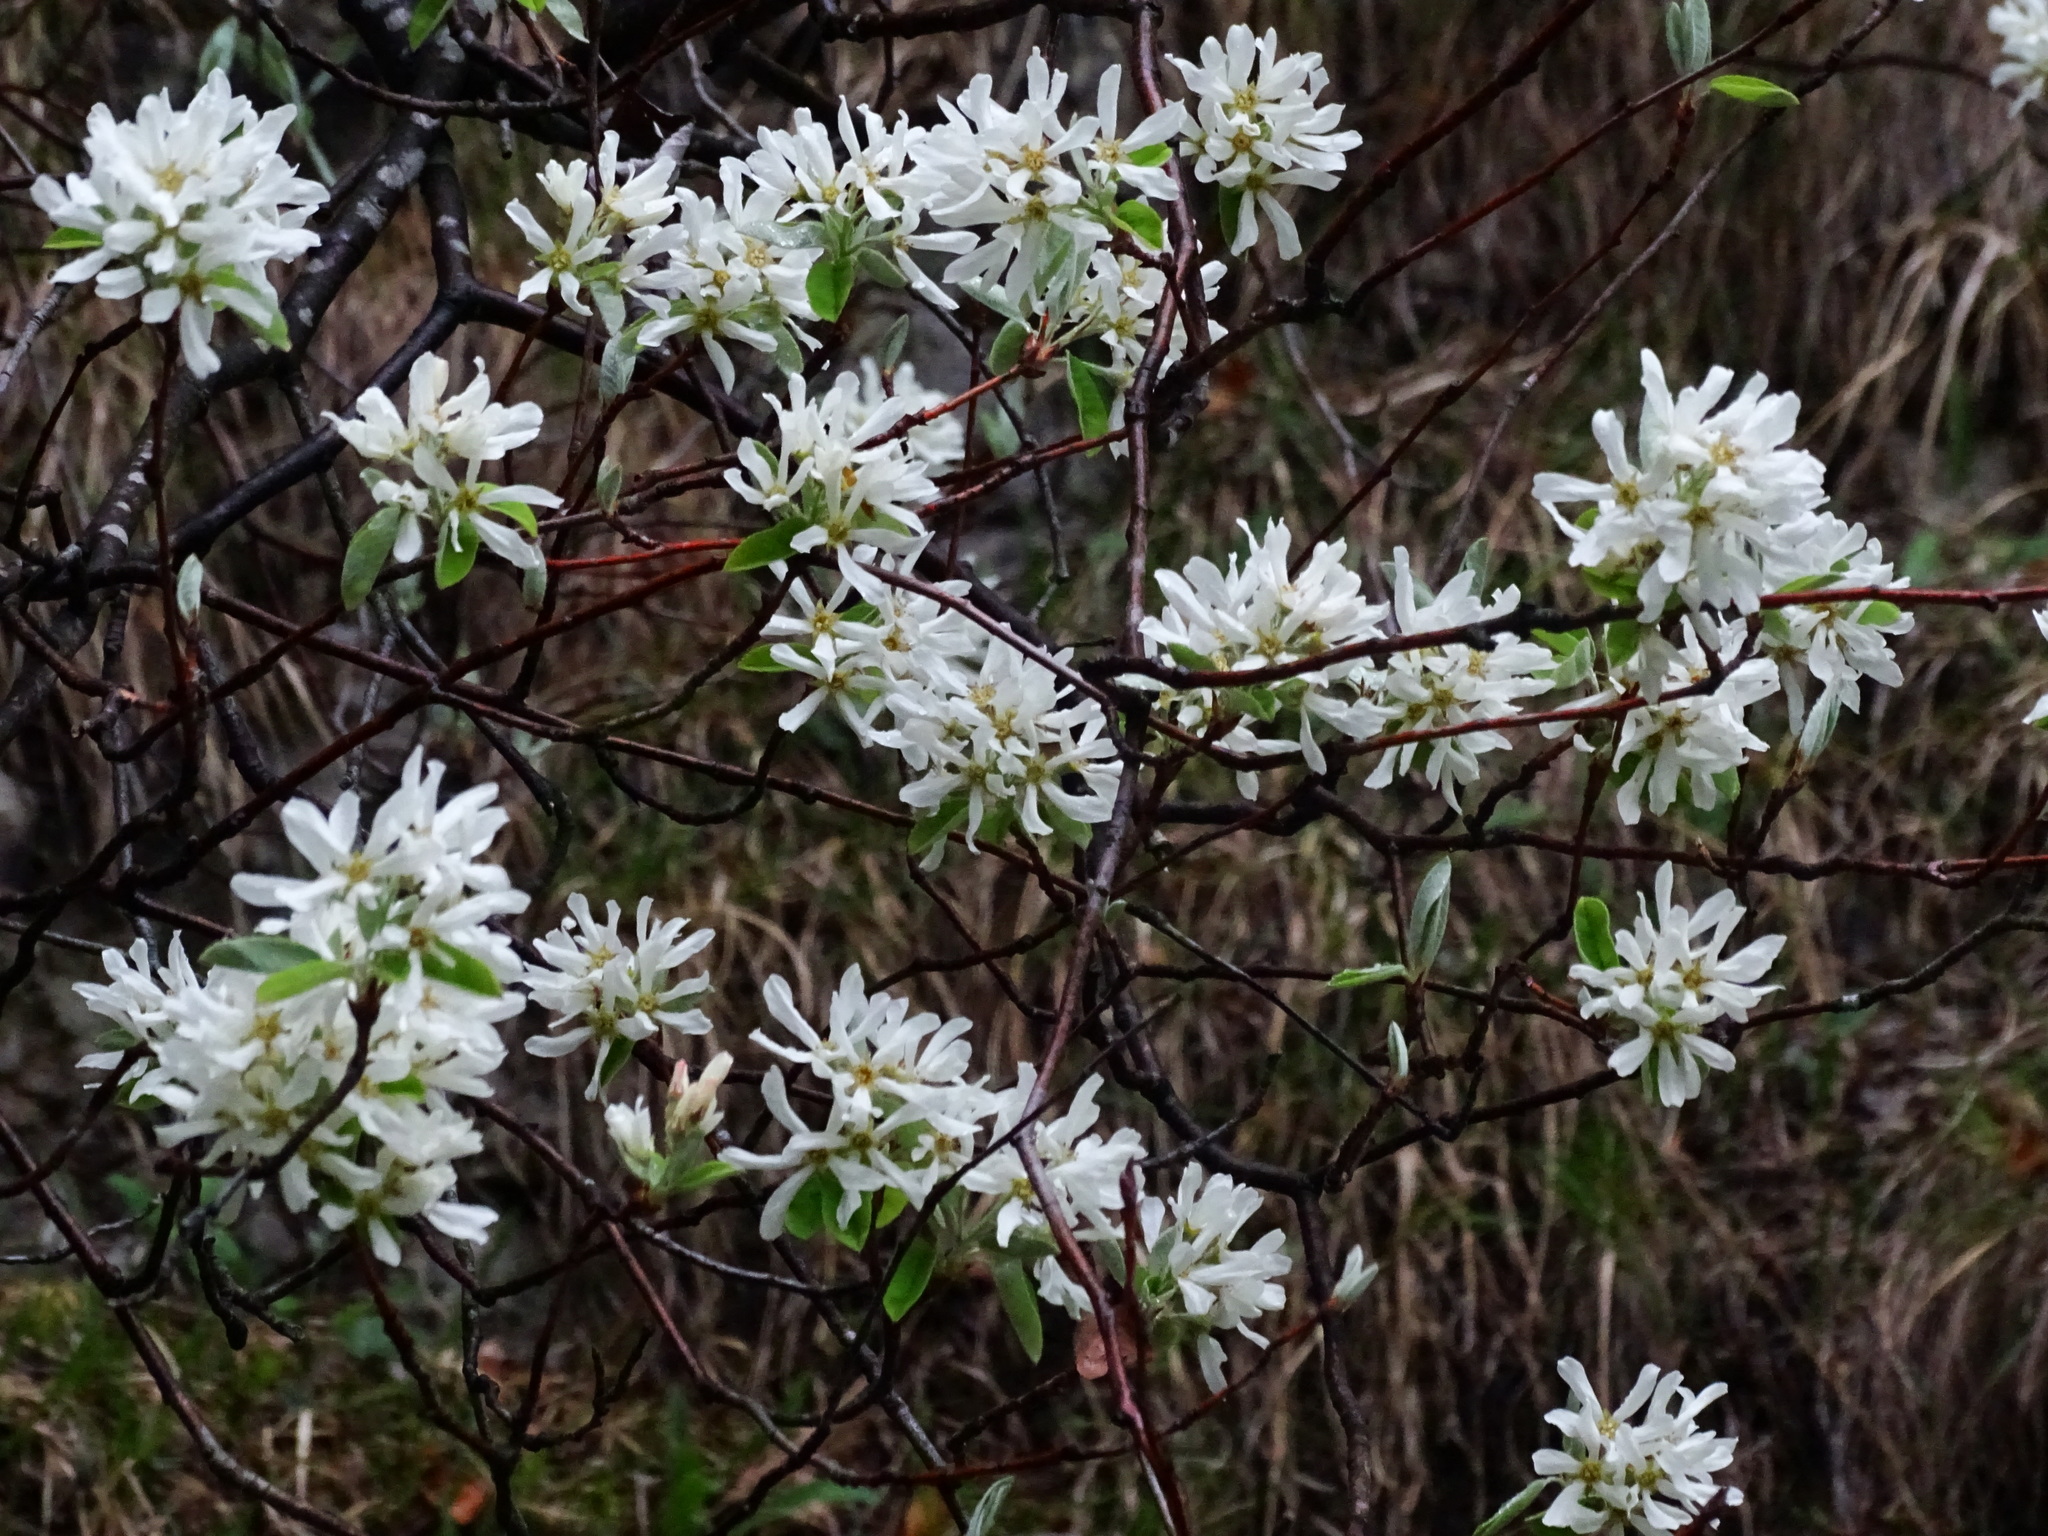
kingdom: Plantae
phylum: Tracheophyta
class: Magnoliopsida
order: Rosales
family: Rosaceae
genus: Amelanchier
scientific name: Amelanchier ovalis
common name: Serviceberry
